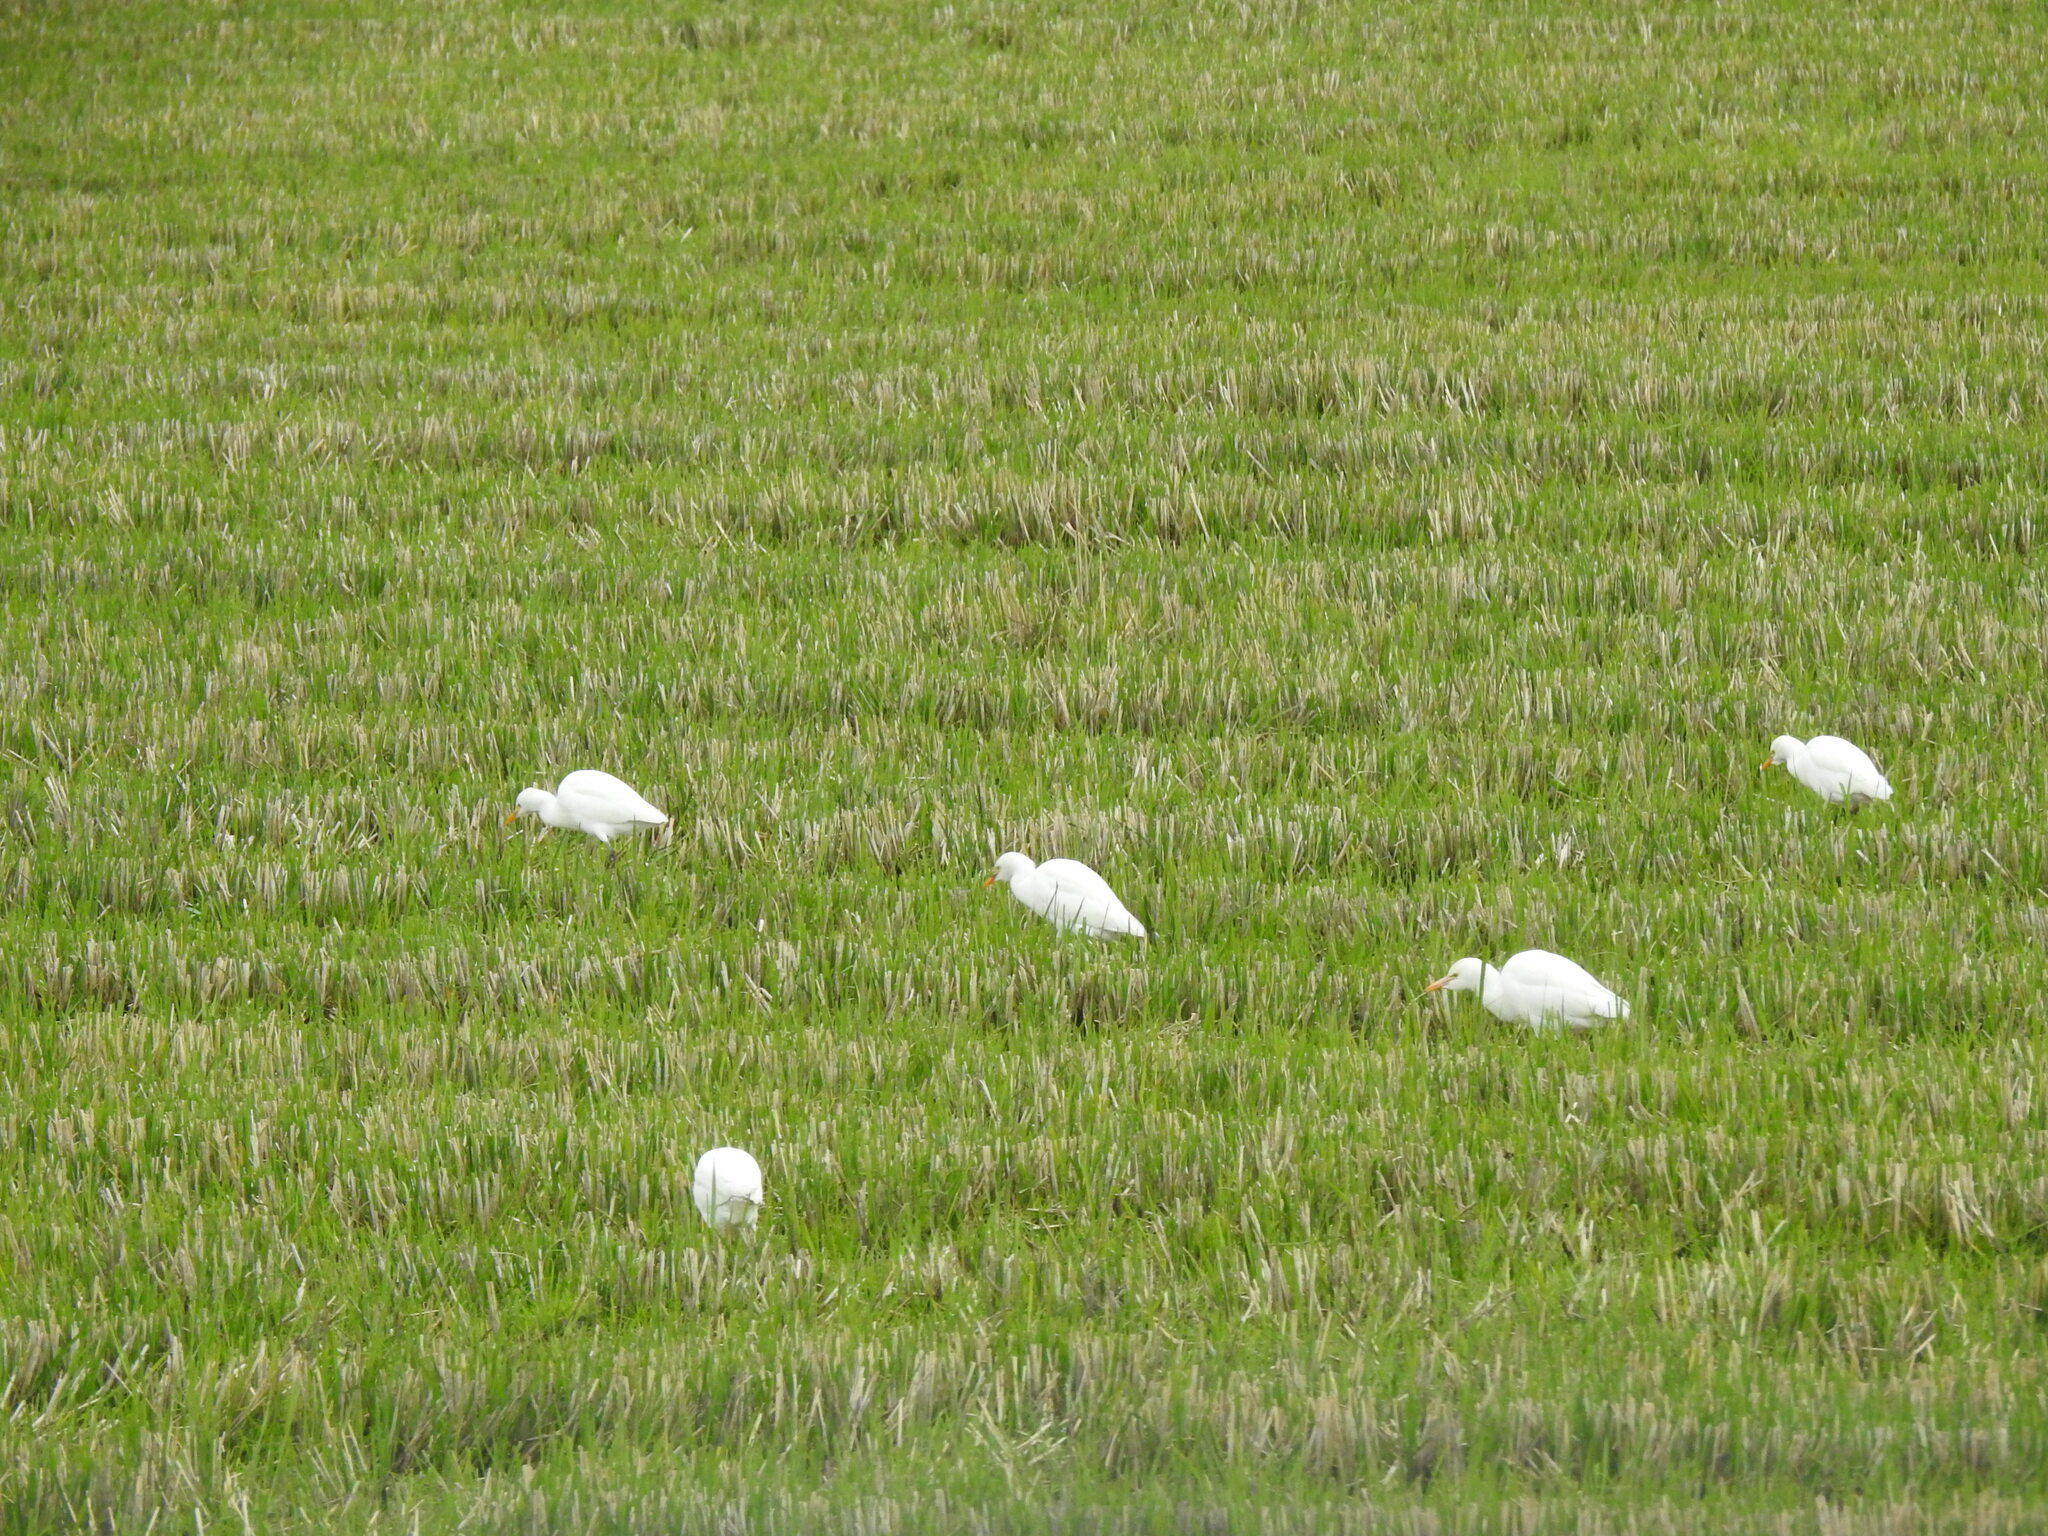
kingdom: Animalia
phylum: Chordata
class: Aves
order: Pelecaniformes
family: Ardeidae
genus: Bubulcus
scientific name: Bubulcus ibis
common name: Cattle egret
